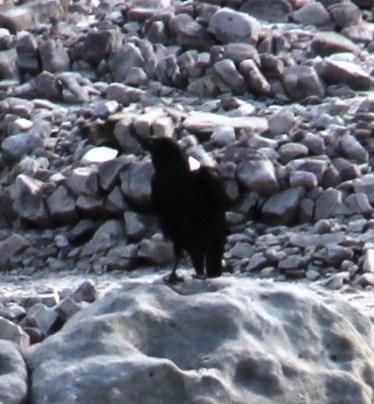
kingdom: Animalia
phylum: Chordata
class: Aves
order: Passeriformes
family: Corvidae
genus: Corvus
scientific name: Corvus albicollis
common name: White-necked raven
